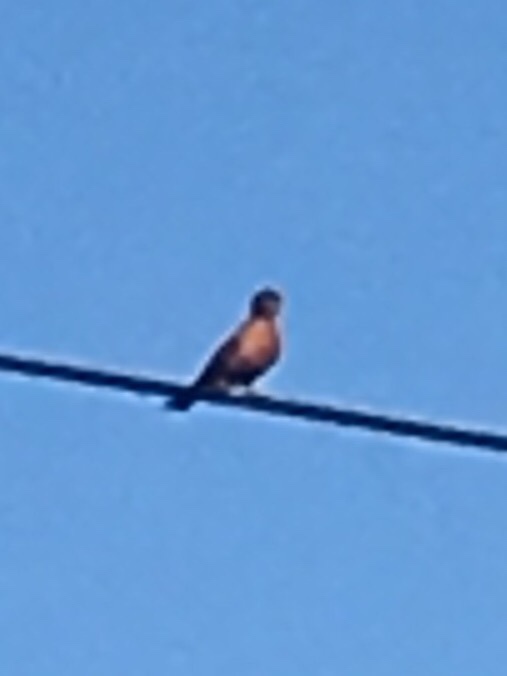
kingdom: Animalia
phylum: Chordata
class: Aves
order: Passeriformes
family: Turdidae
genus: Turdus
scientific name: Turdus migratorius
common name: American robin
